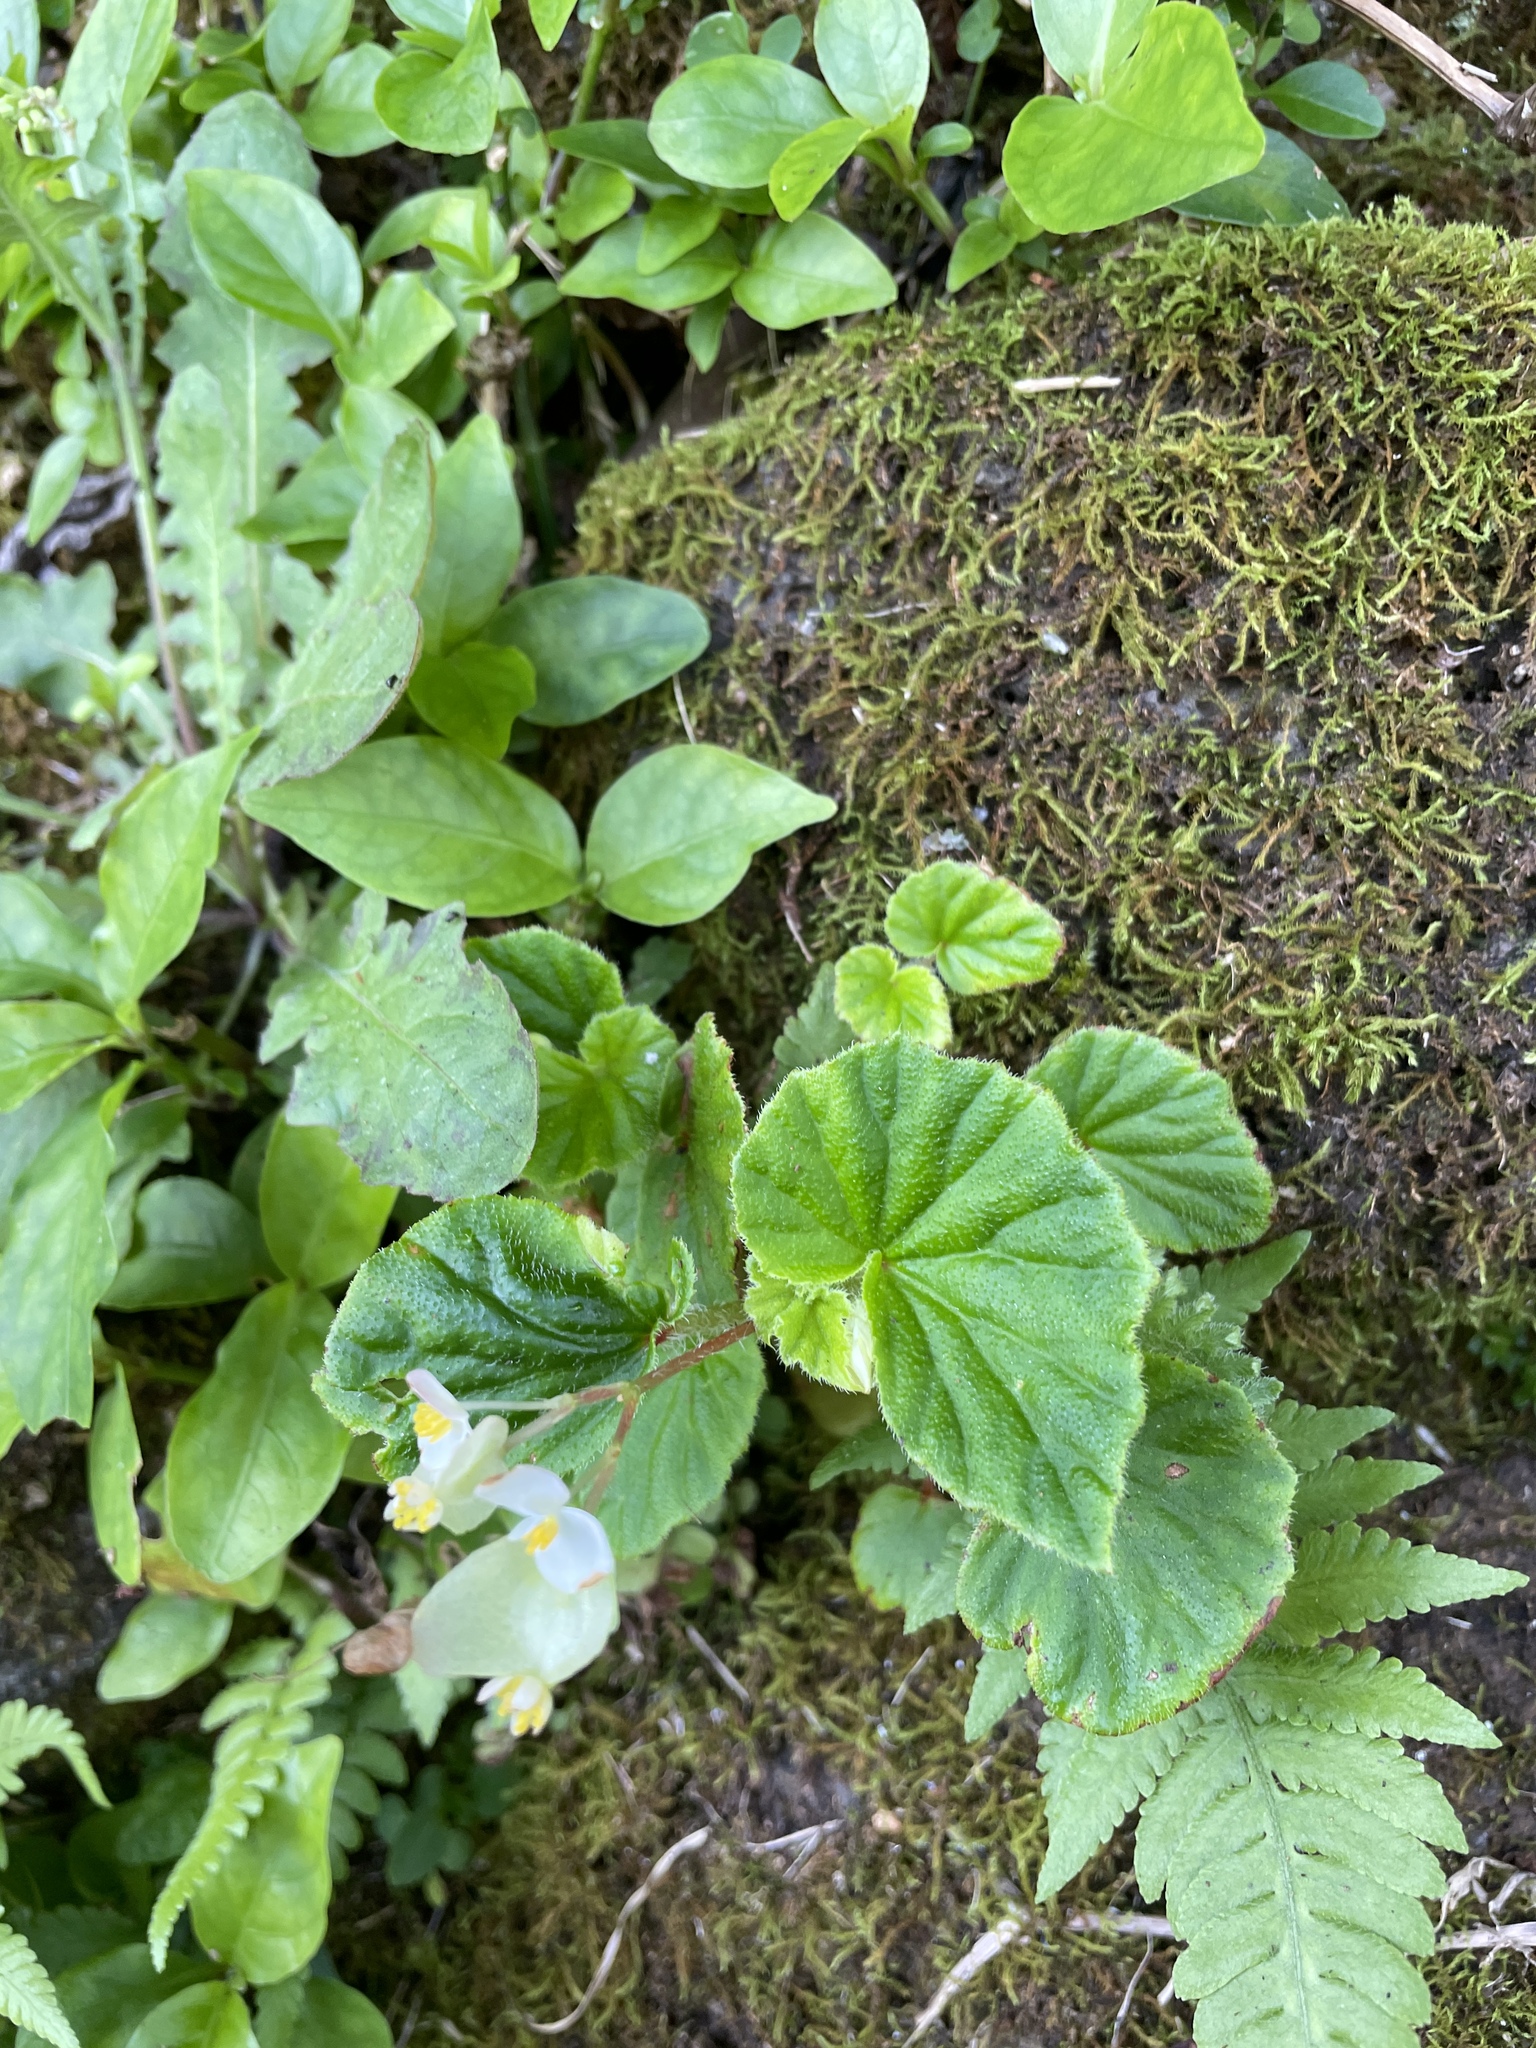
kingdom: Plantae
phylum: Tracheophyta
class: Magnoliopsida
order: Cucurbitales
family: Begoniaceae
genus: Begonia
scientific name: Begonia hirtella
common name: Brazilian begonia
